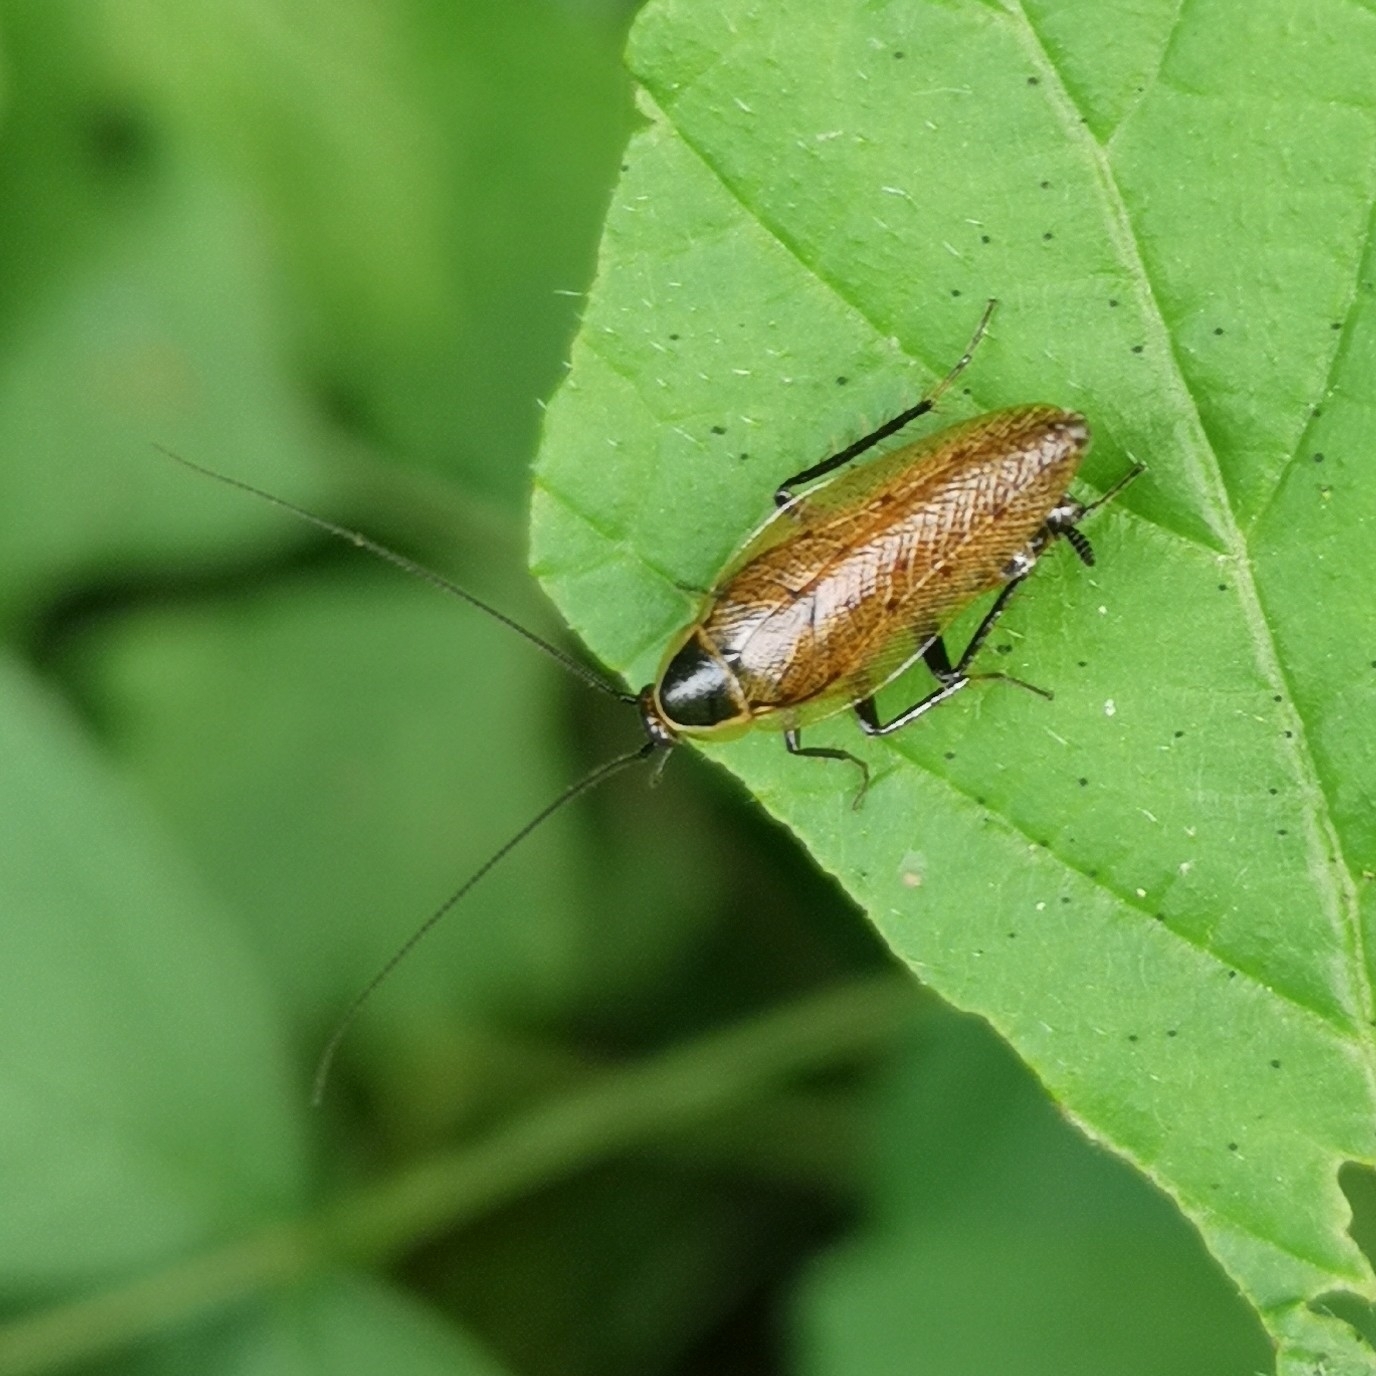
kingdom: Animalia
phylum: Arthropoda
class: Insecta
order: Blattodea
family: Ectobiidae
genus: Ectobius
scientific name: Ectobius sylvestris
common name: Forest cockroach
